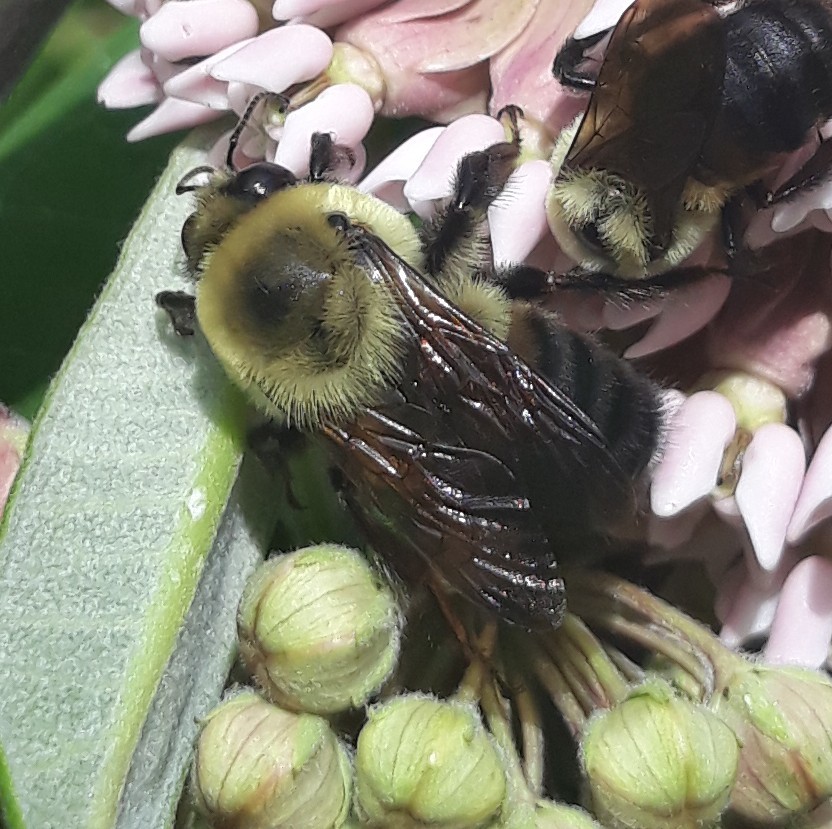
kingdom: Animalia
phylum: Arthropoda
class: Insecta
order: Hymenoptera
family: Apidae
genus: Bombus
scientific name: Bombus griseocollis
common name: Brown-belted bumble bee
